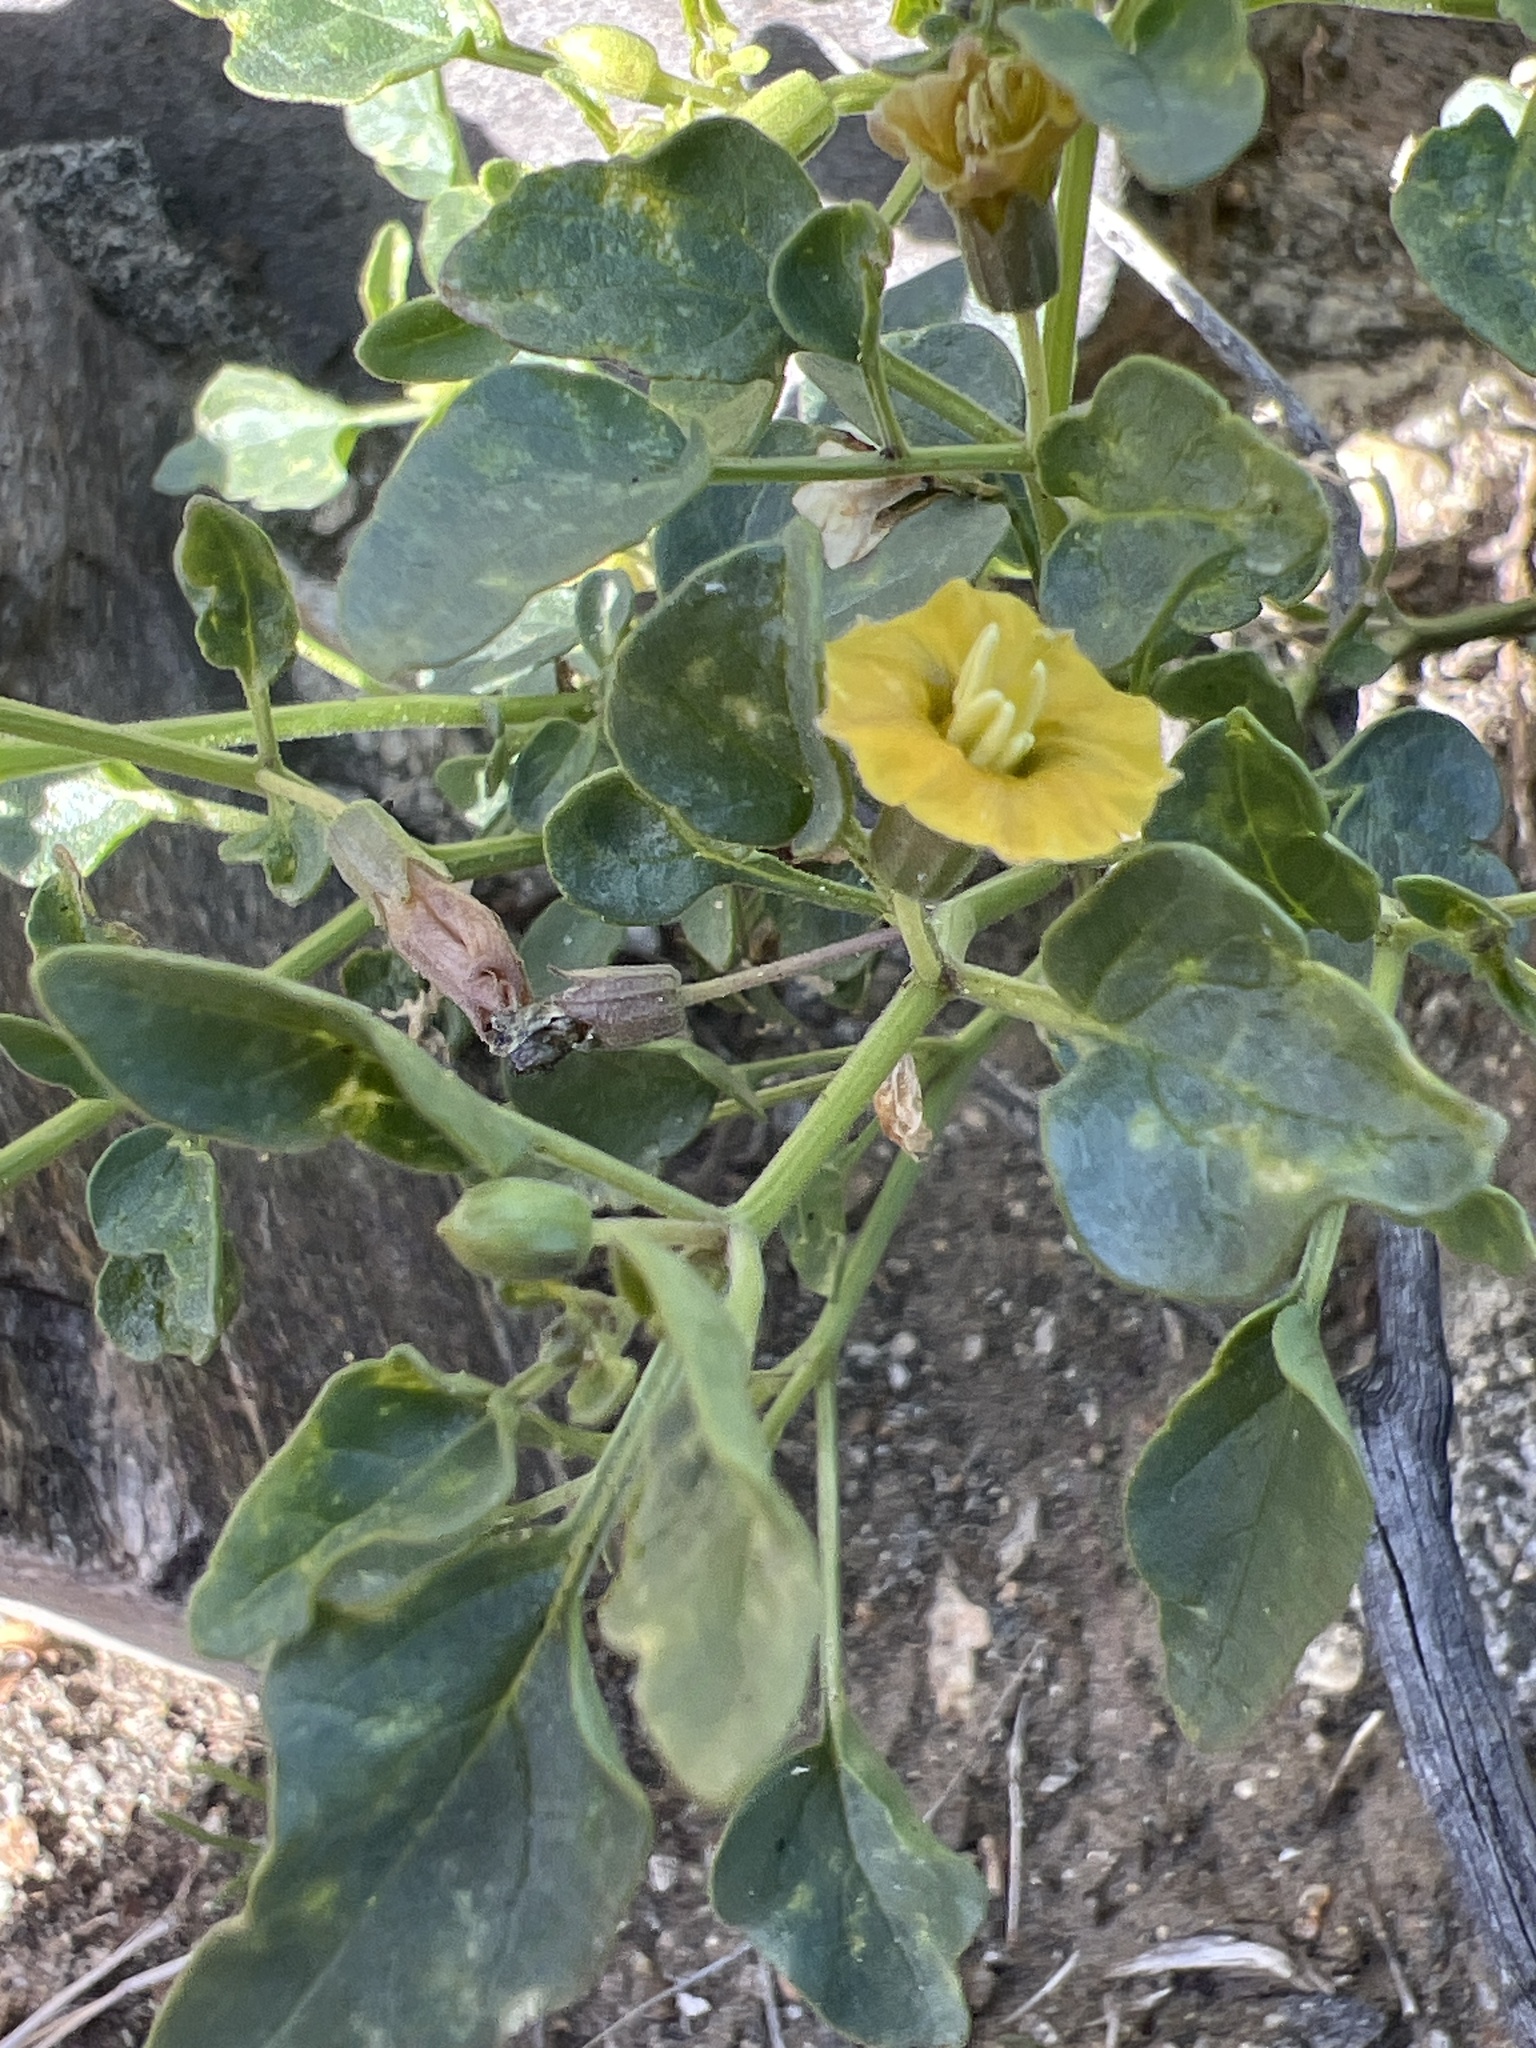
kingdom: Plantae
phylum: Tracheophyta
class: Magnoliopsida
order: Solanales
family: Solanaceae
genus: Physalis
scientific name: Physalis crassifolia
